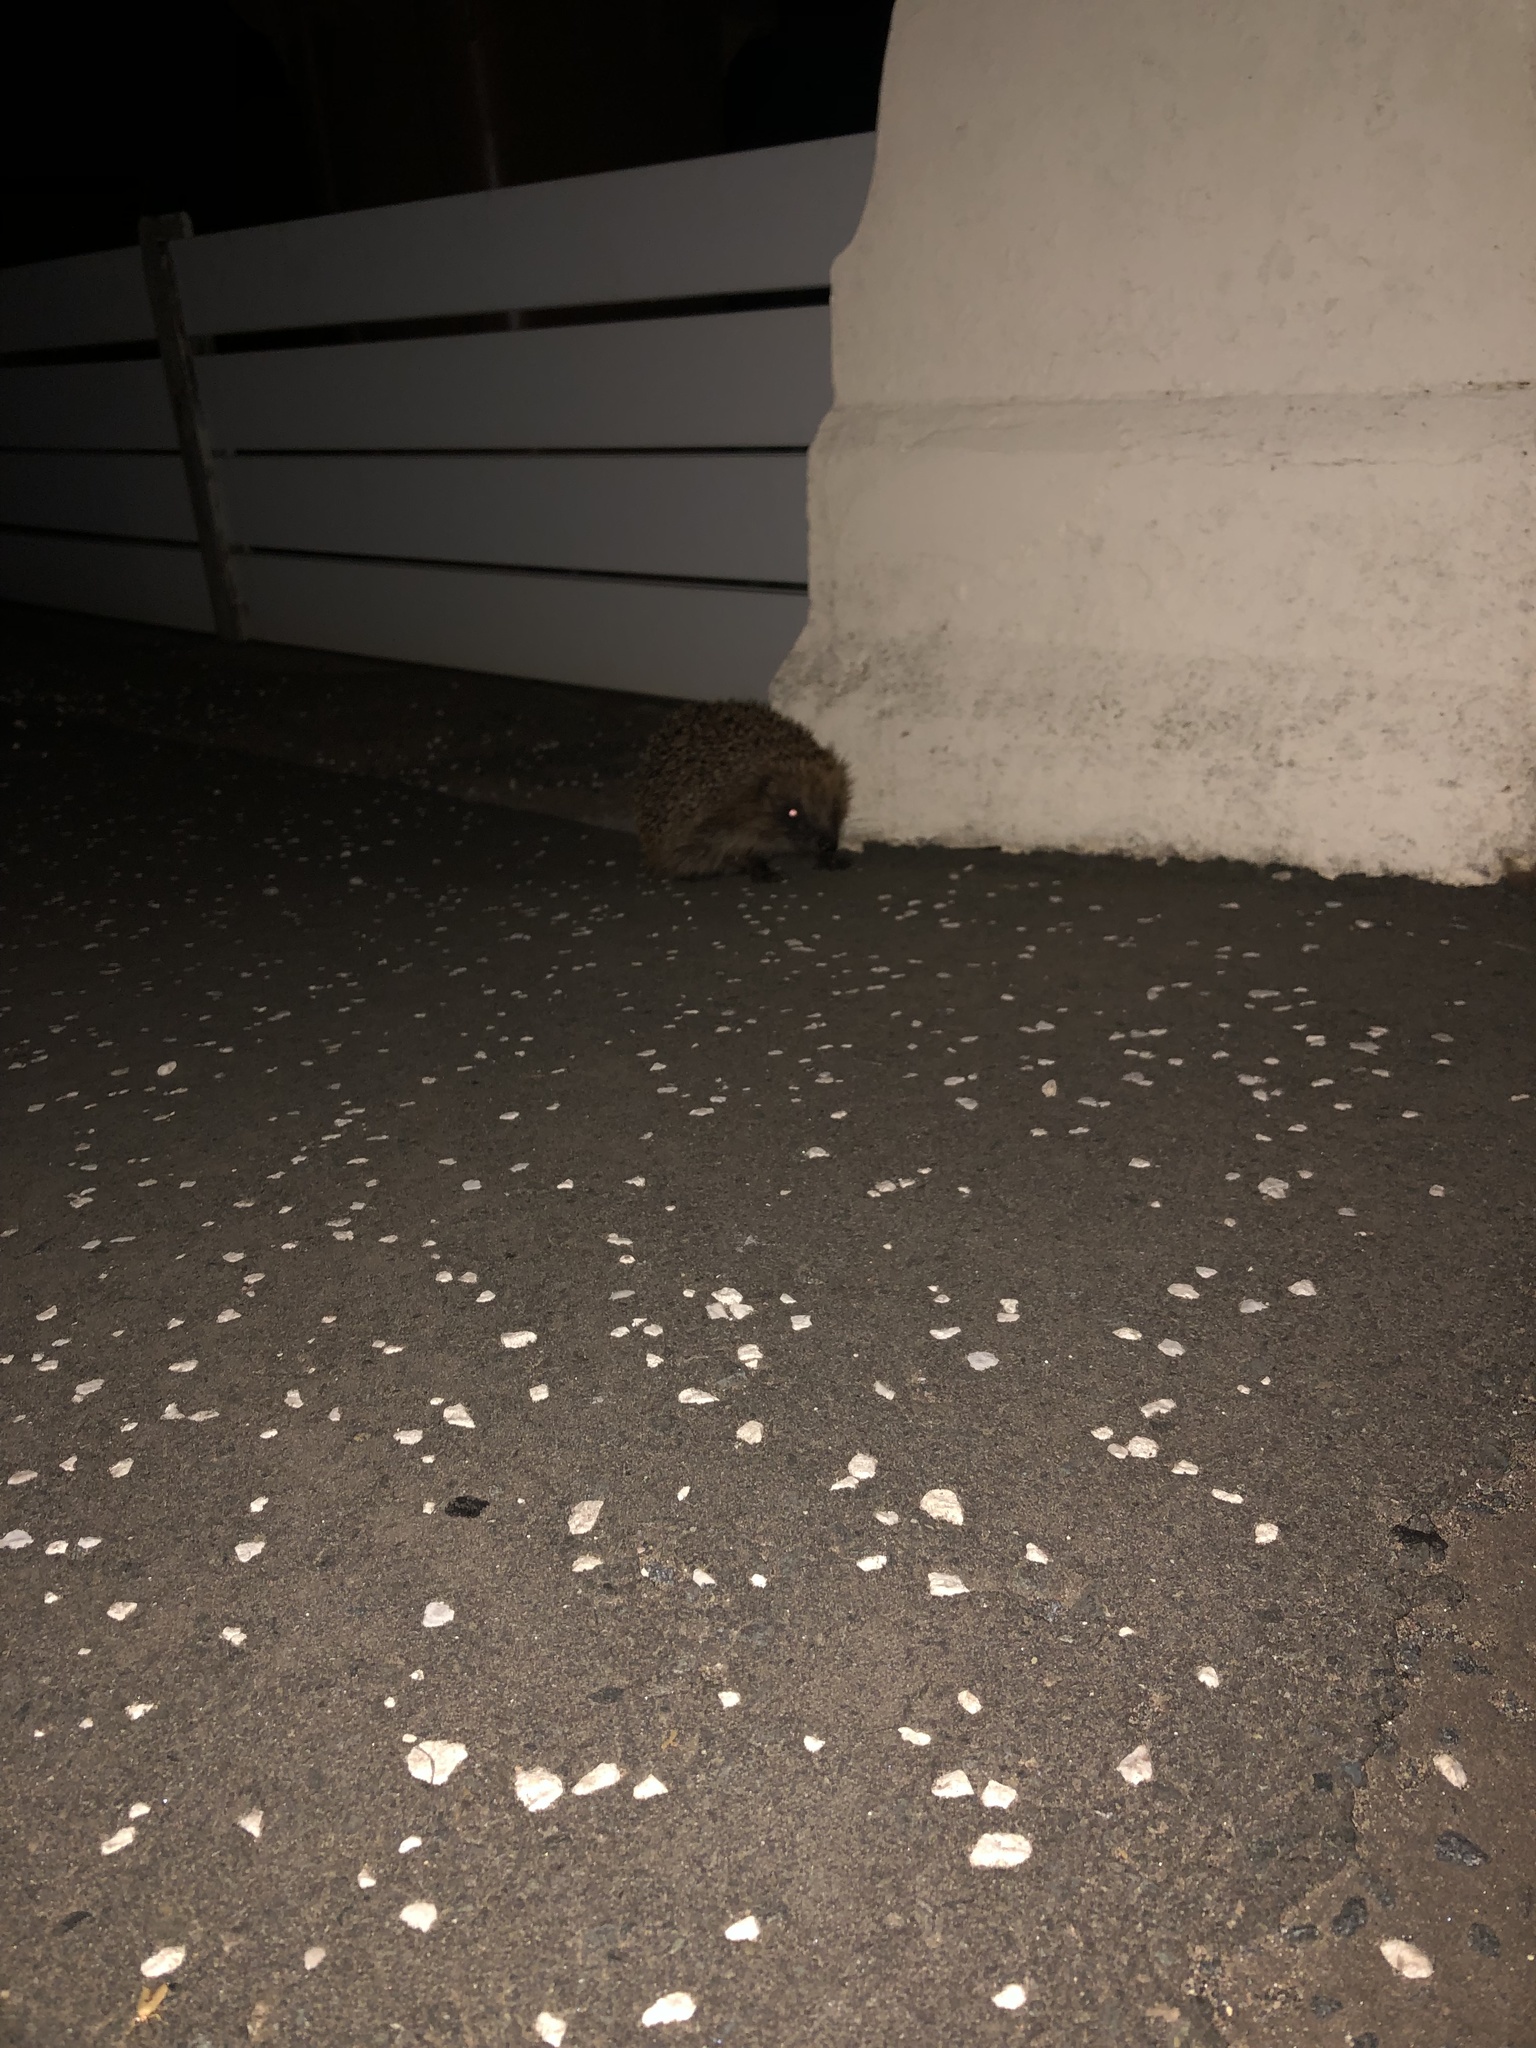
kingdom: Animalia
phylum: Chordata
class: Mammalia
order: Erinaceomorpha
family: Erinaceidae
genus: Erinaceus
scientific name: Erinaceus europaeus
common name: West european hedgehog
